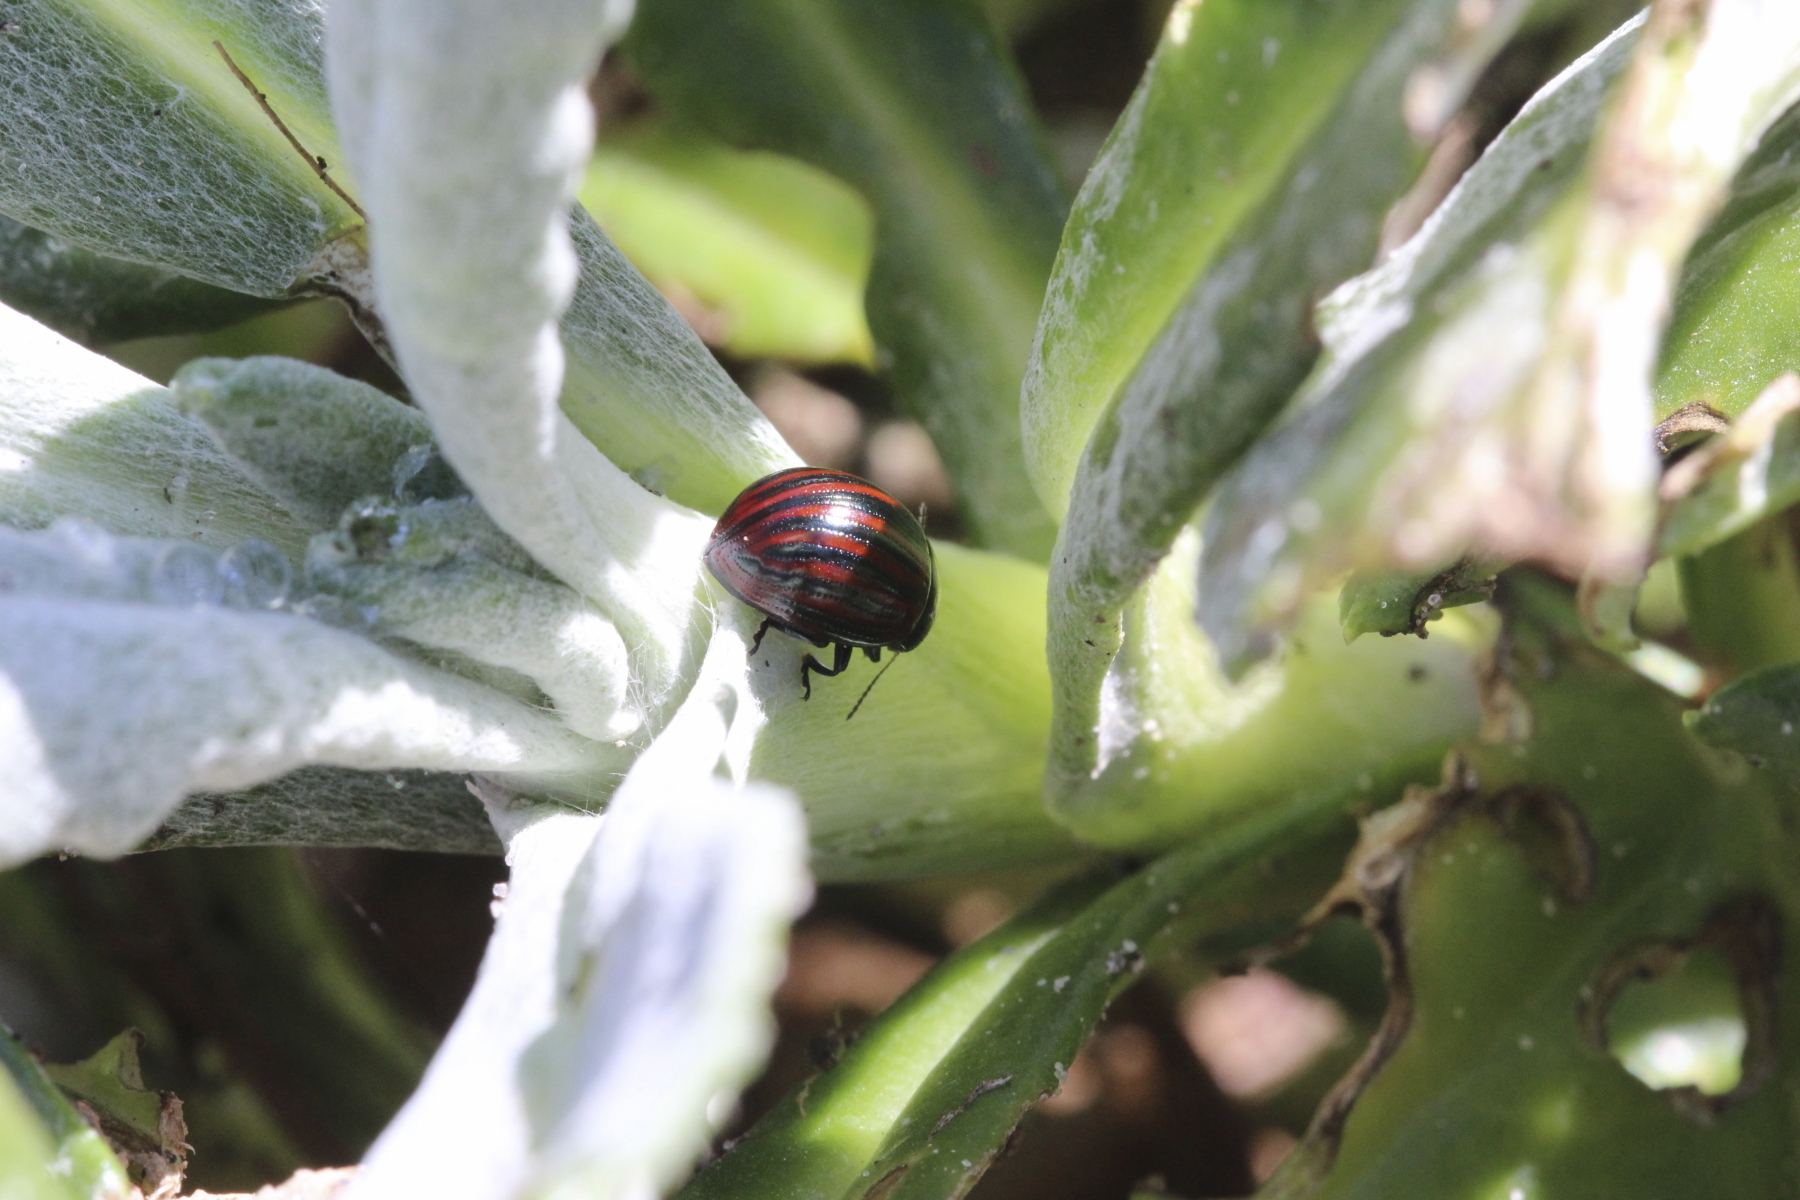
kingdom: Animalia
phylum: Arthropoda
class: Insecta
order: Coleoptera
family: Chrysomelidae
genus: Chrysolina
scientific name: Chrysolina
